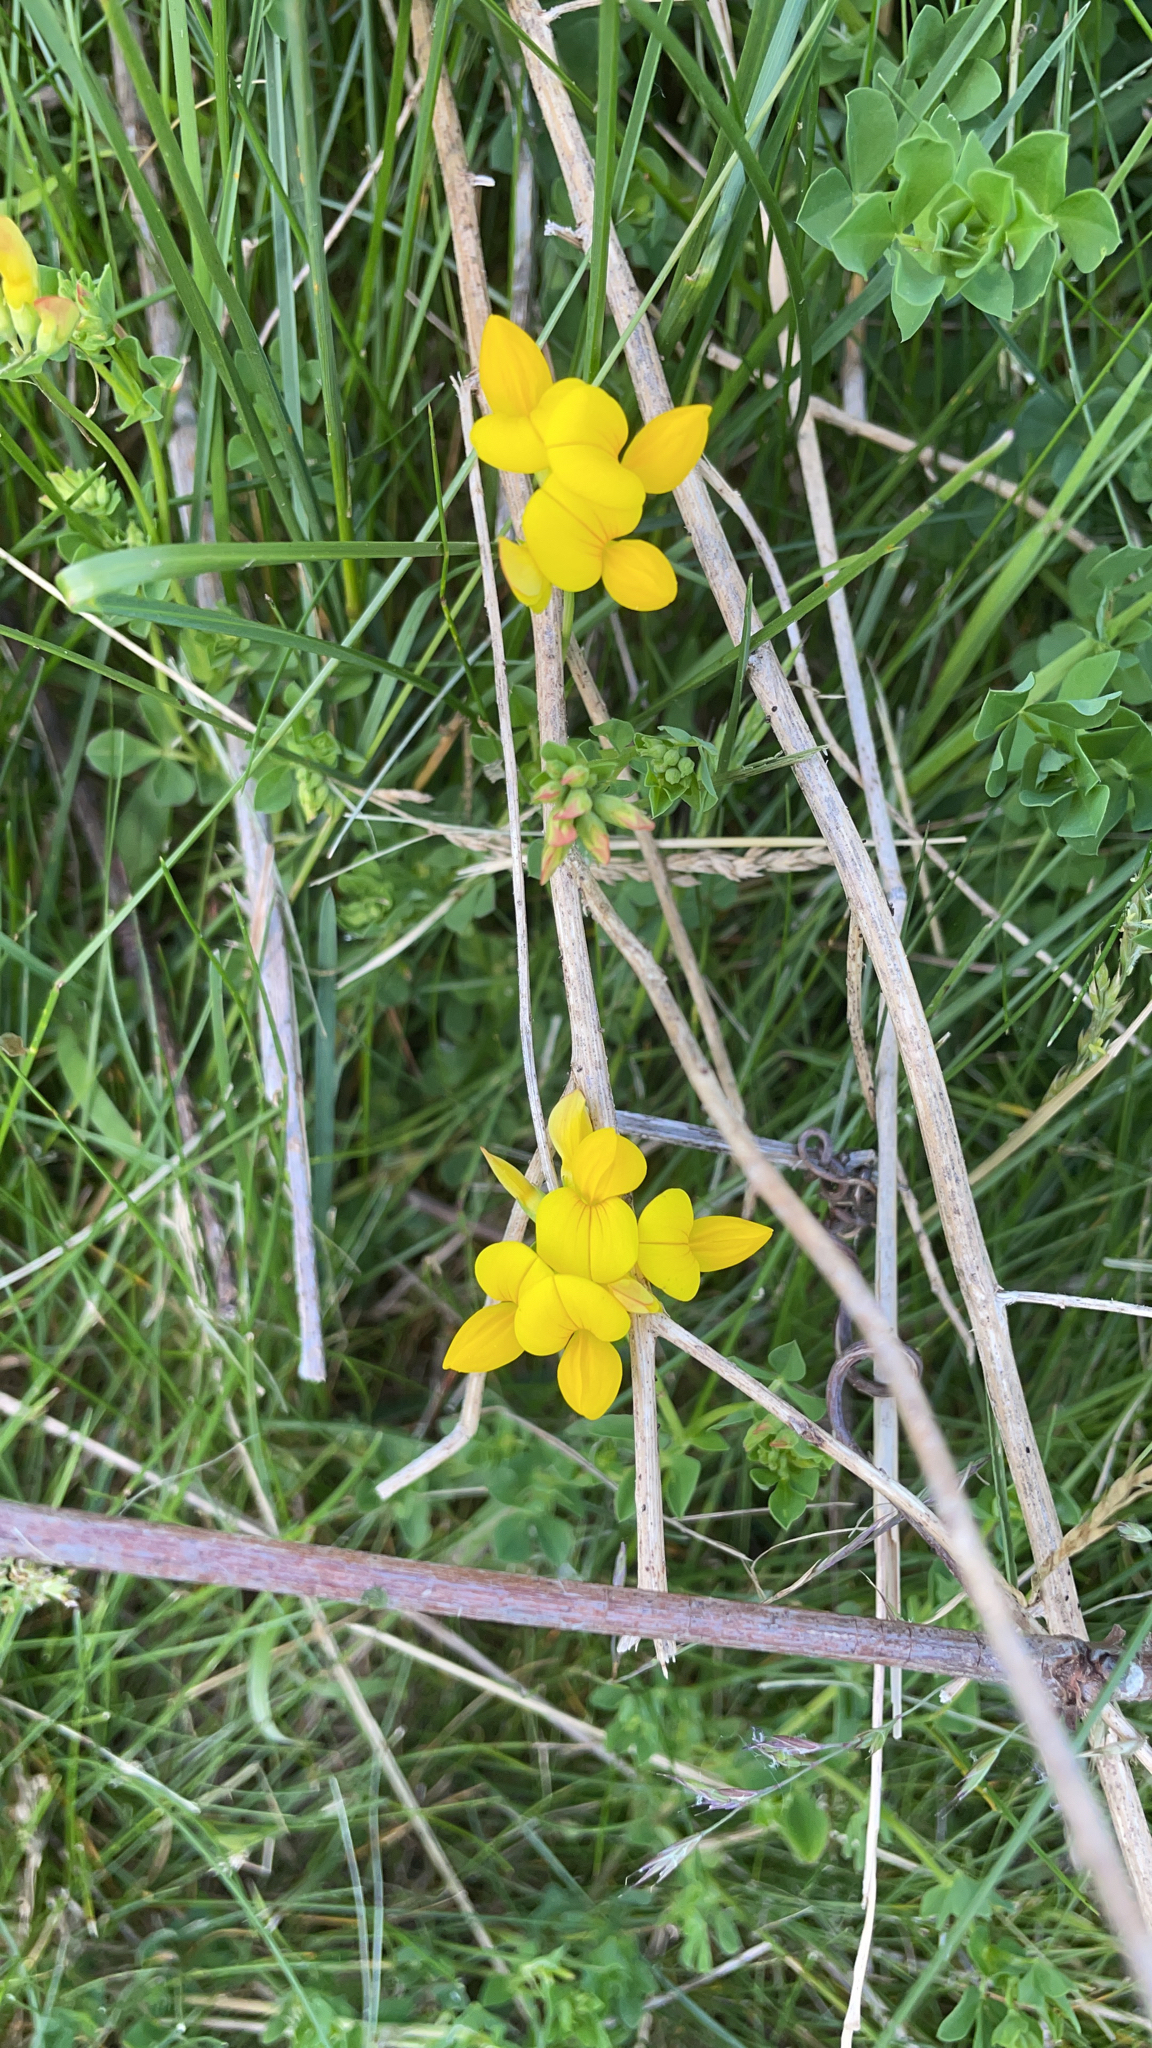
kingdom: Plantae
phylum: Tracheophyta
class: Magnoliopsida
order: Fabales
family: Fabaceae
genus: Lotus
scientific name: Lotus corniculatus
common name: Common bird's-foot-trefoil
